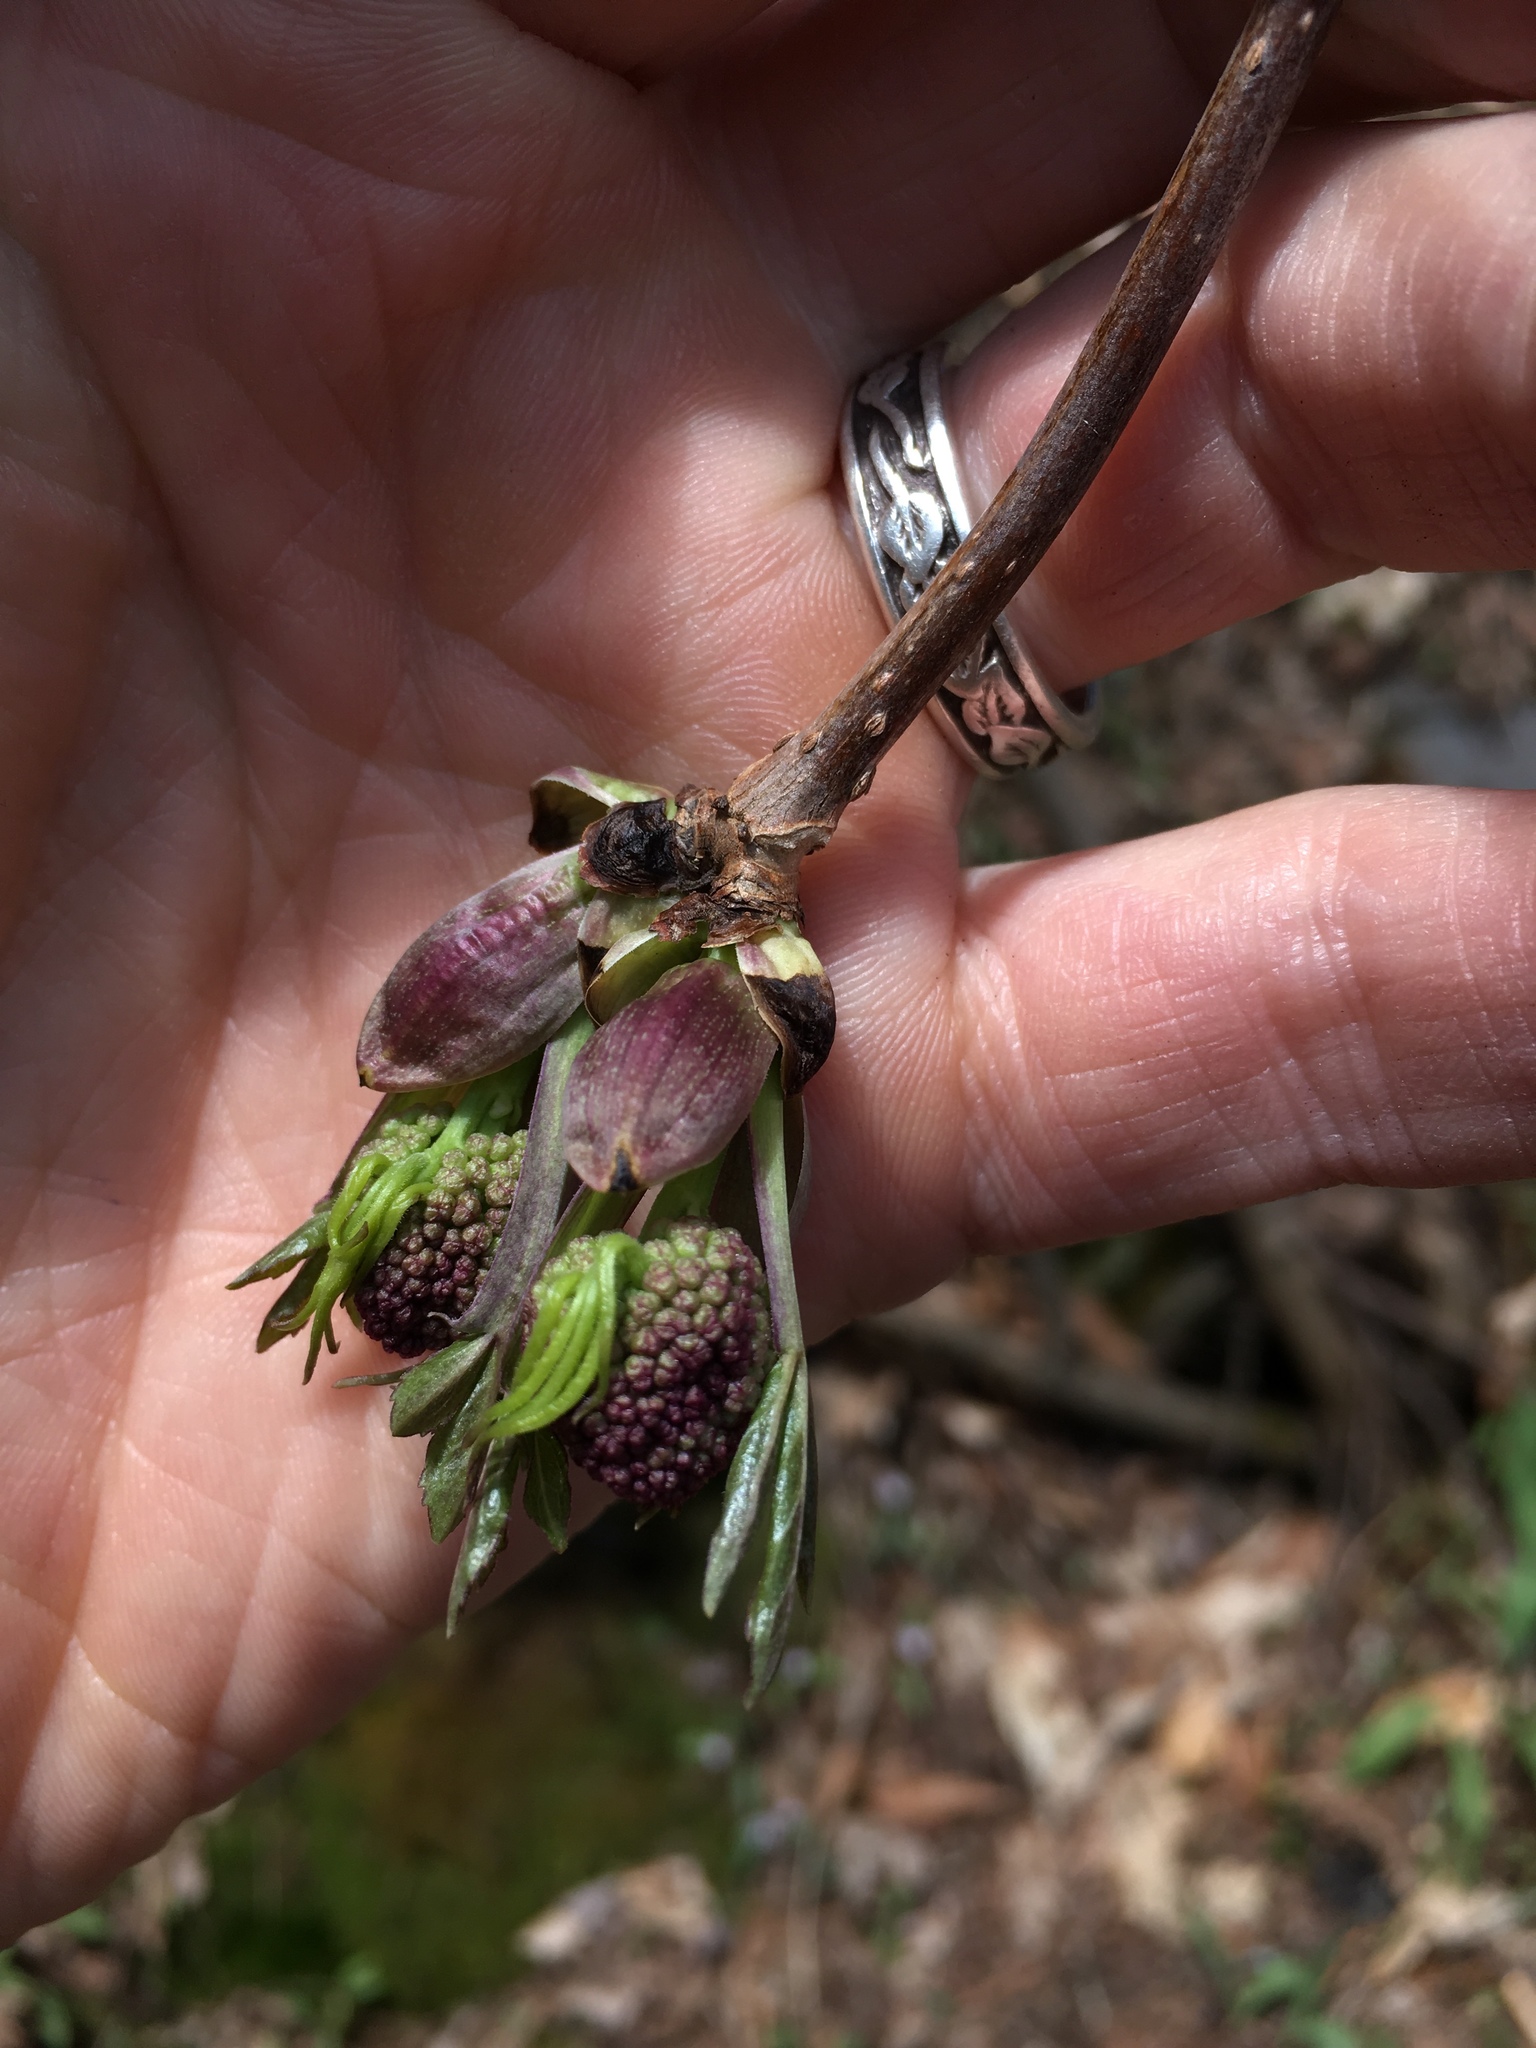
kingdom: Plantae
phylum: Tracheophyta
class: Magnoliopsida
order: Dipsacales
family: Viburnaceae
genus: Sambucus
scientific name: Sambucus racemosa
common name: Red-berried elder
